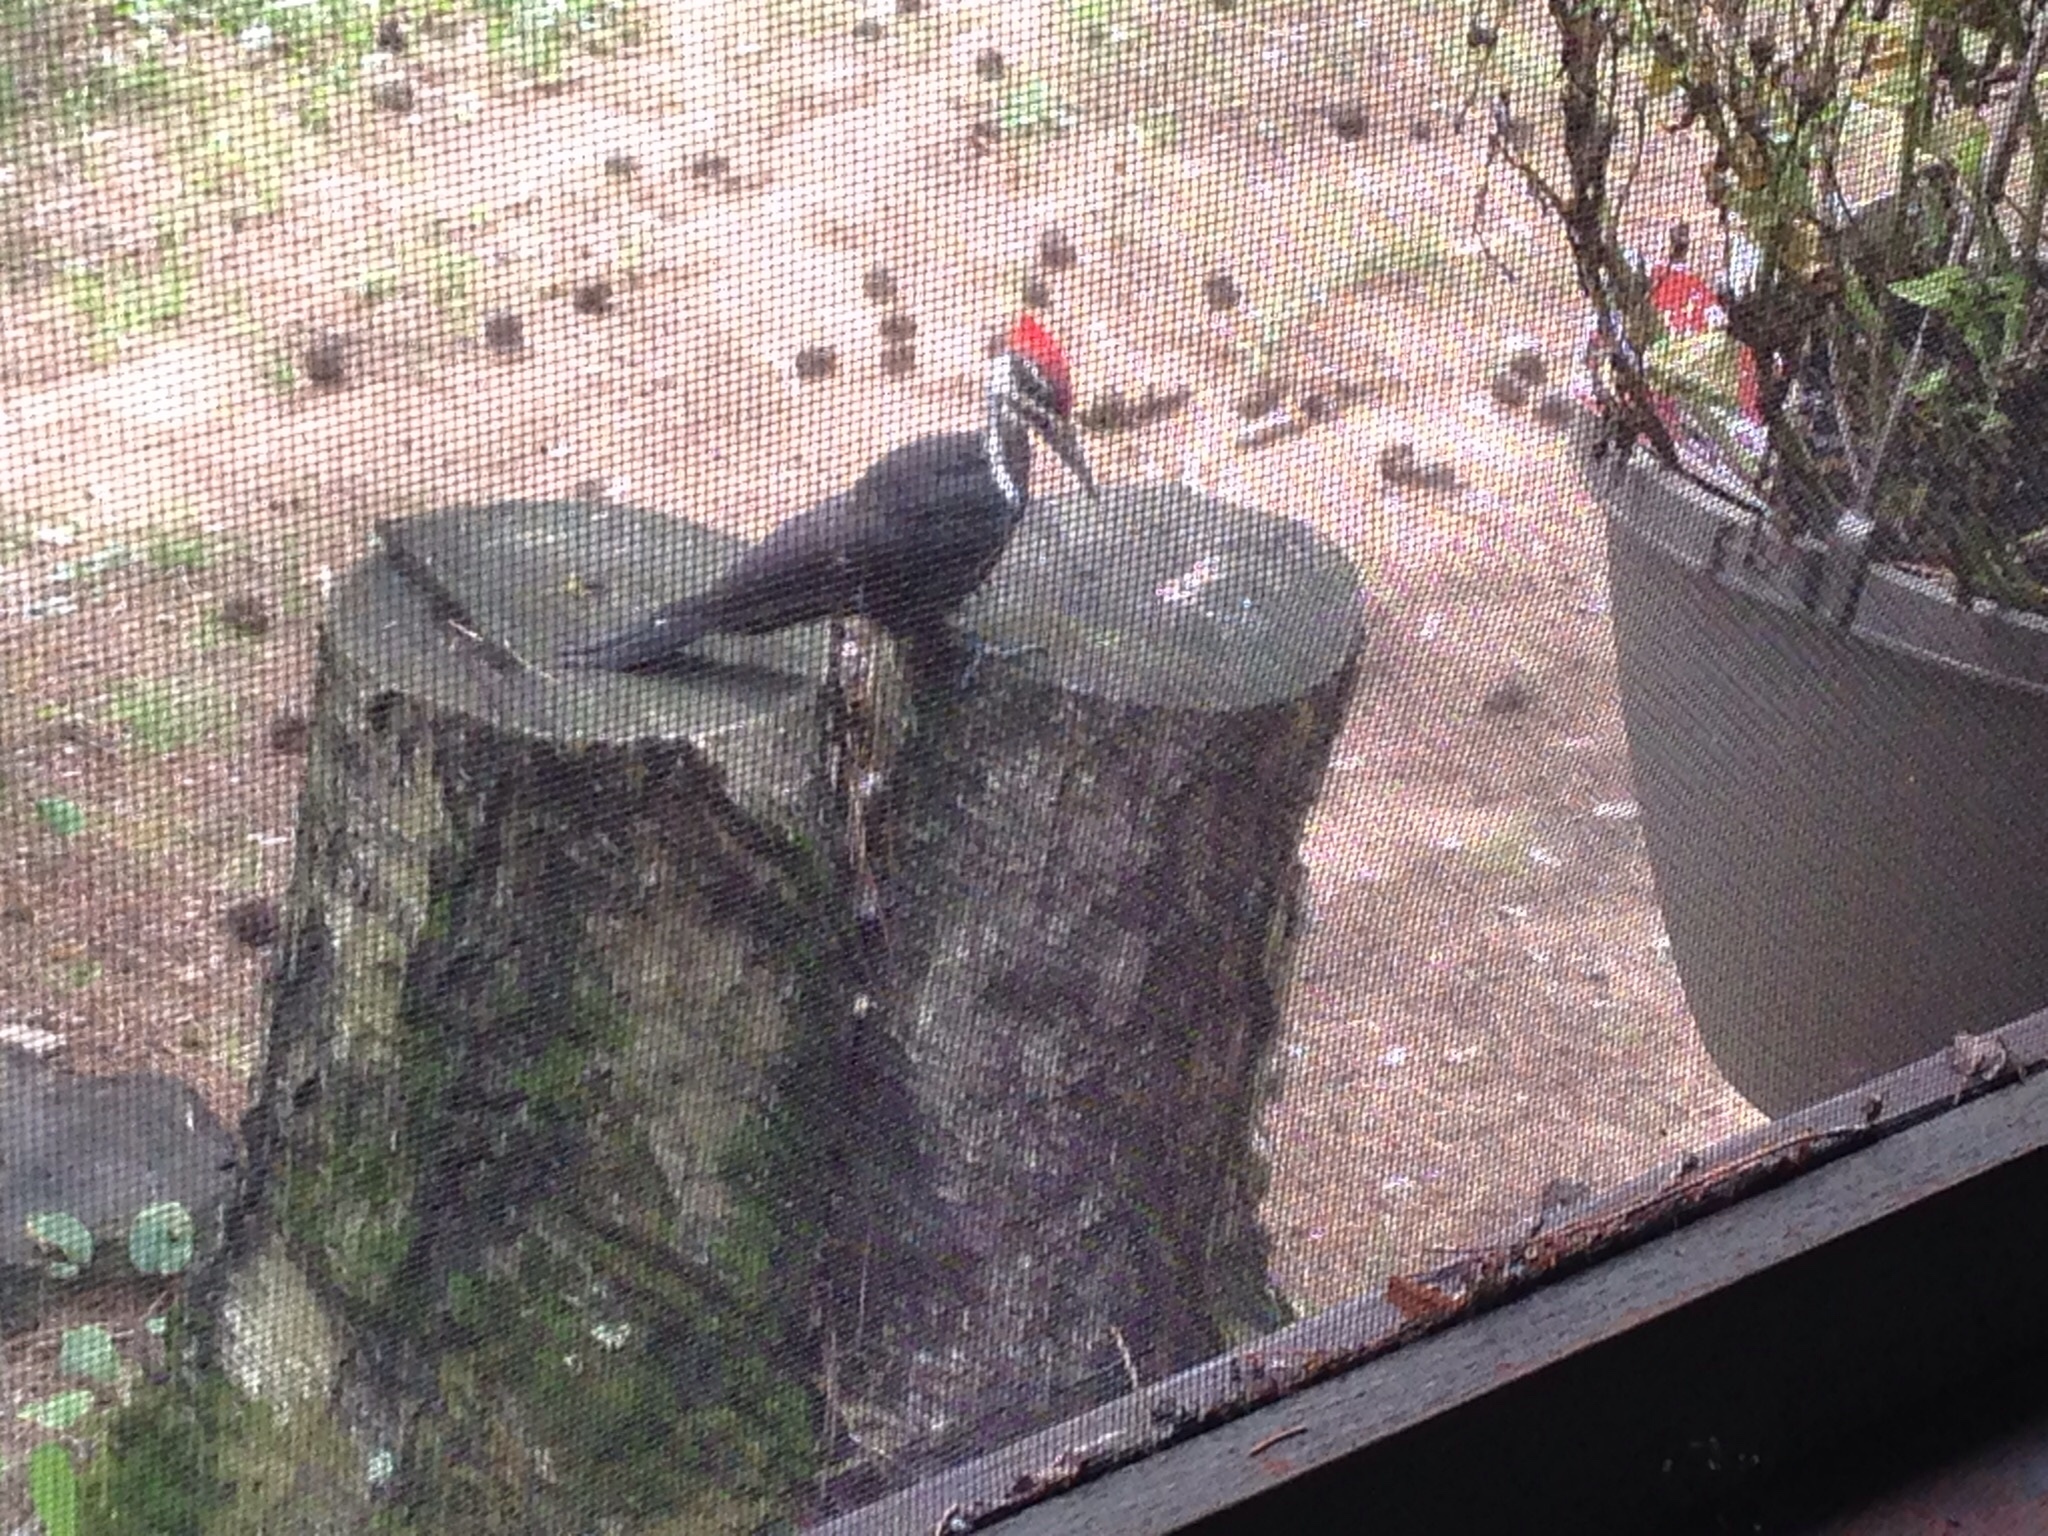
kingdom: Animalia
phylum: Chordata
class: Aves
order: Piciformes
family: Picidae
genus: Dryocopus
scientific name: Dryocopus pileatus
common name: Pileated woodpecker
